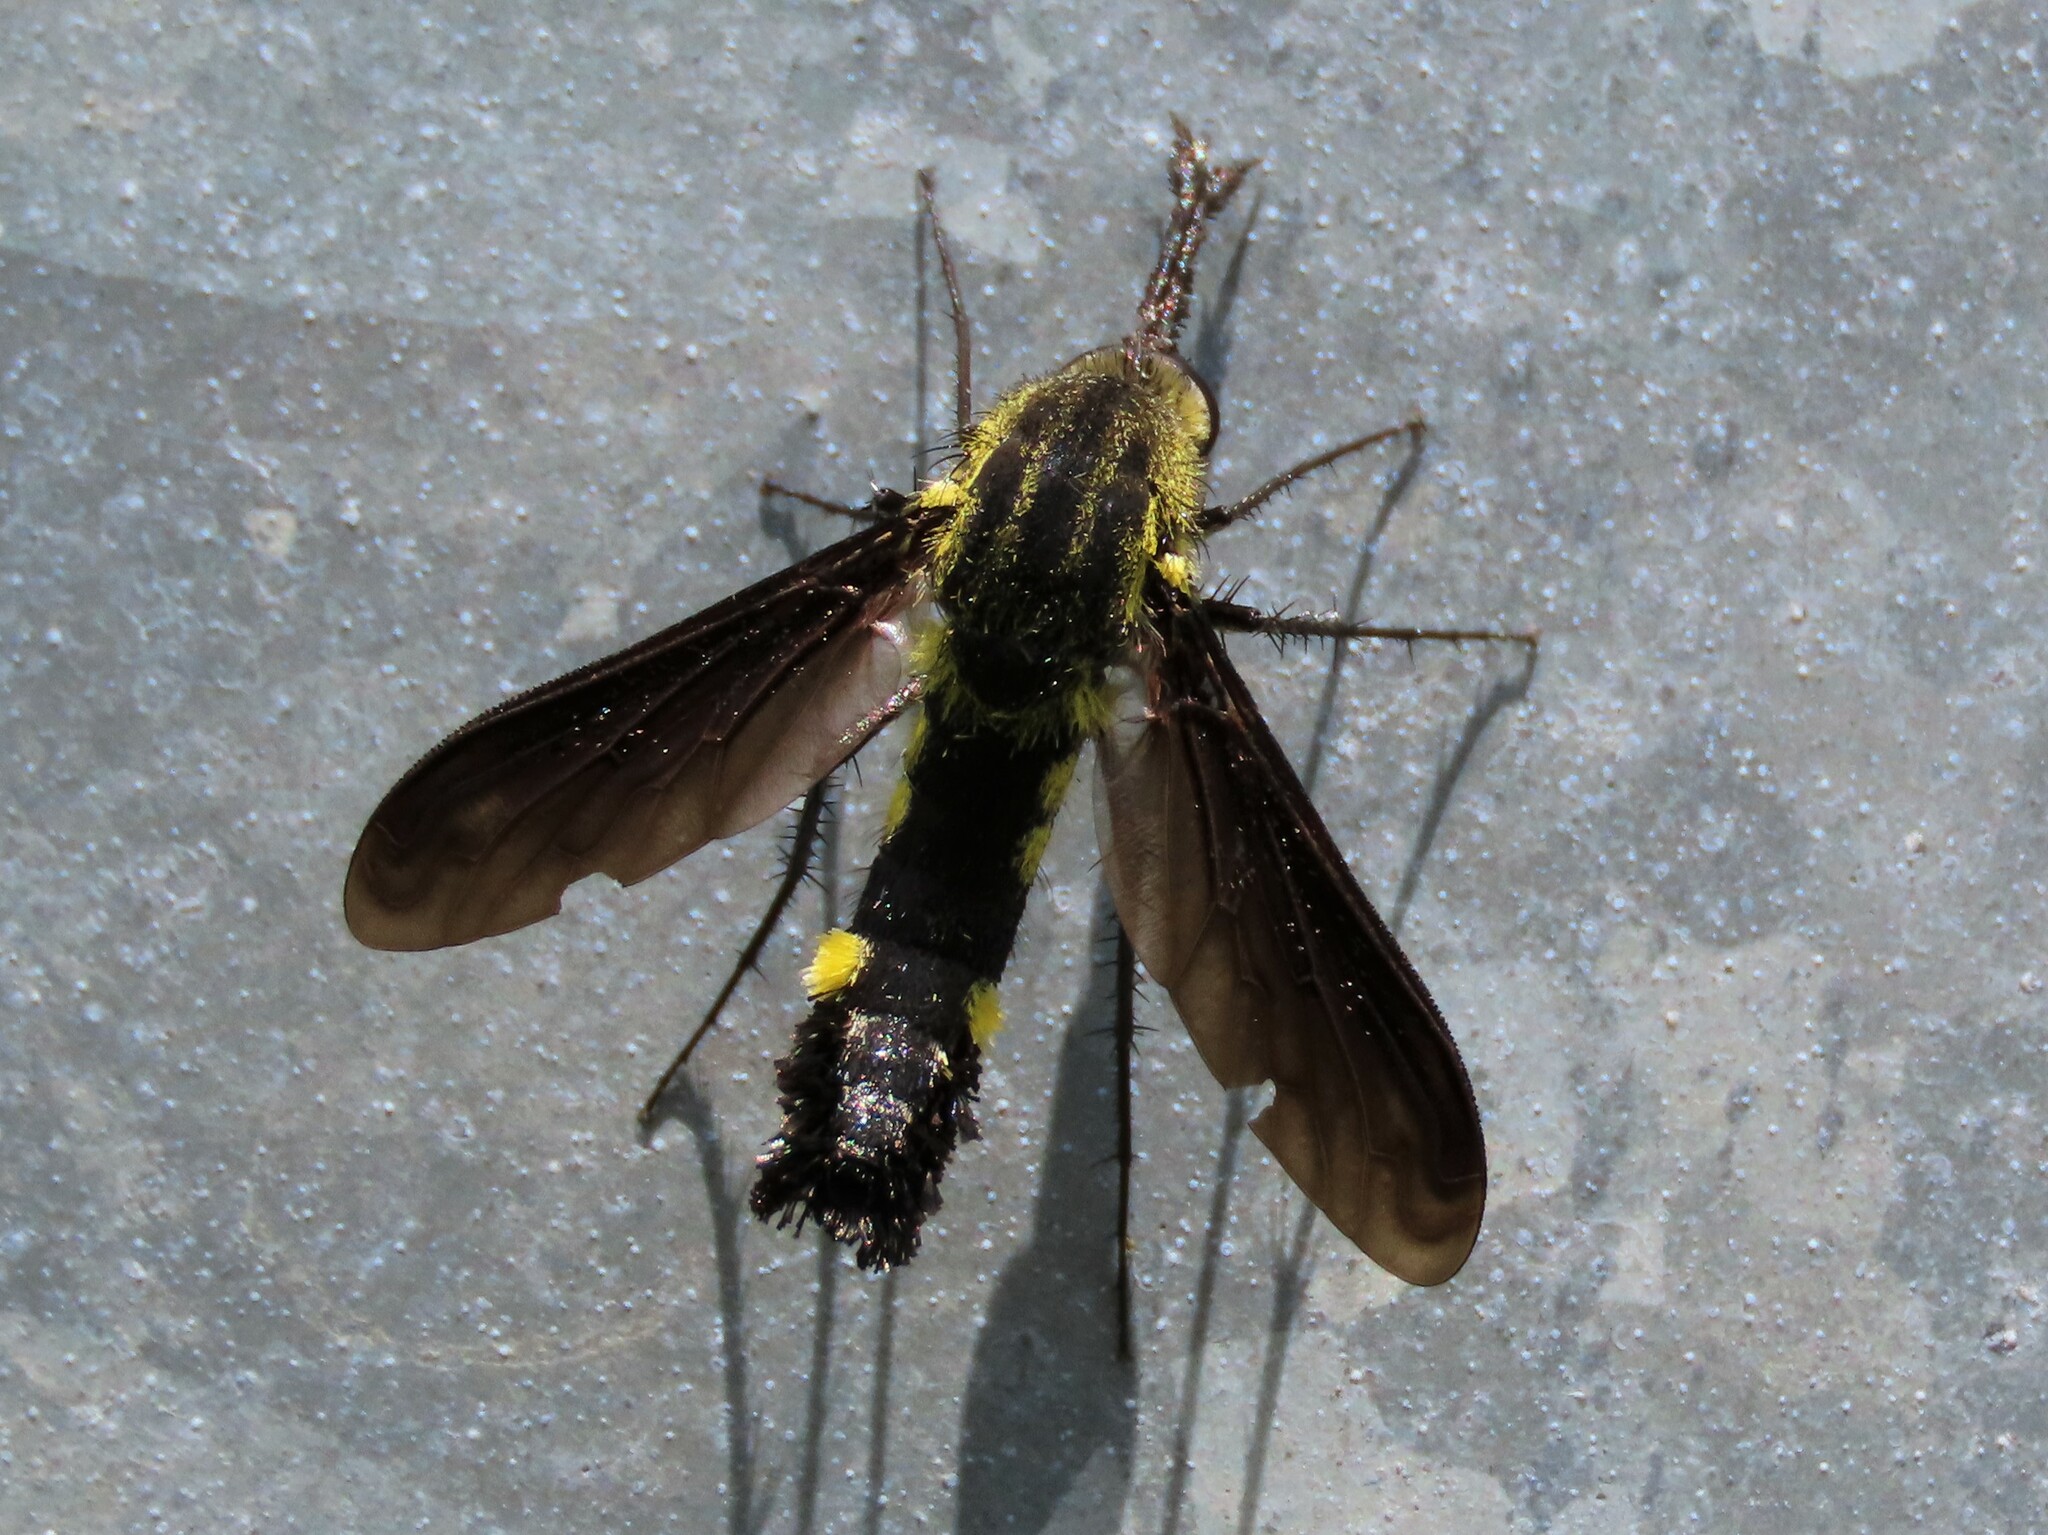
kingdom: Animalia
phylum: Arthropoda
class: Insecta
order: Diptera
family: Bombyliidae
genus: Lepidophora
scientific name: Lepidophora lepidocera
